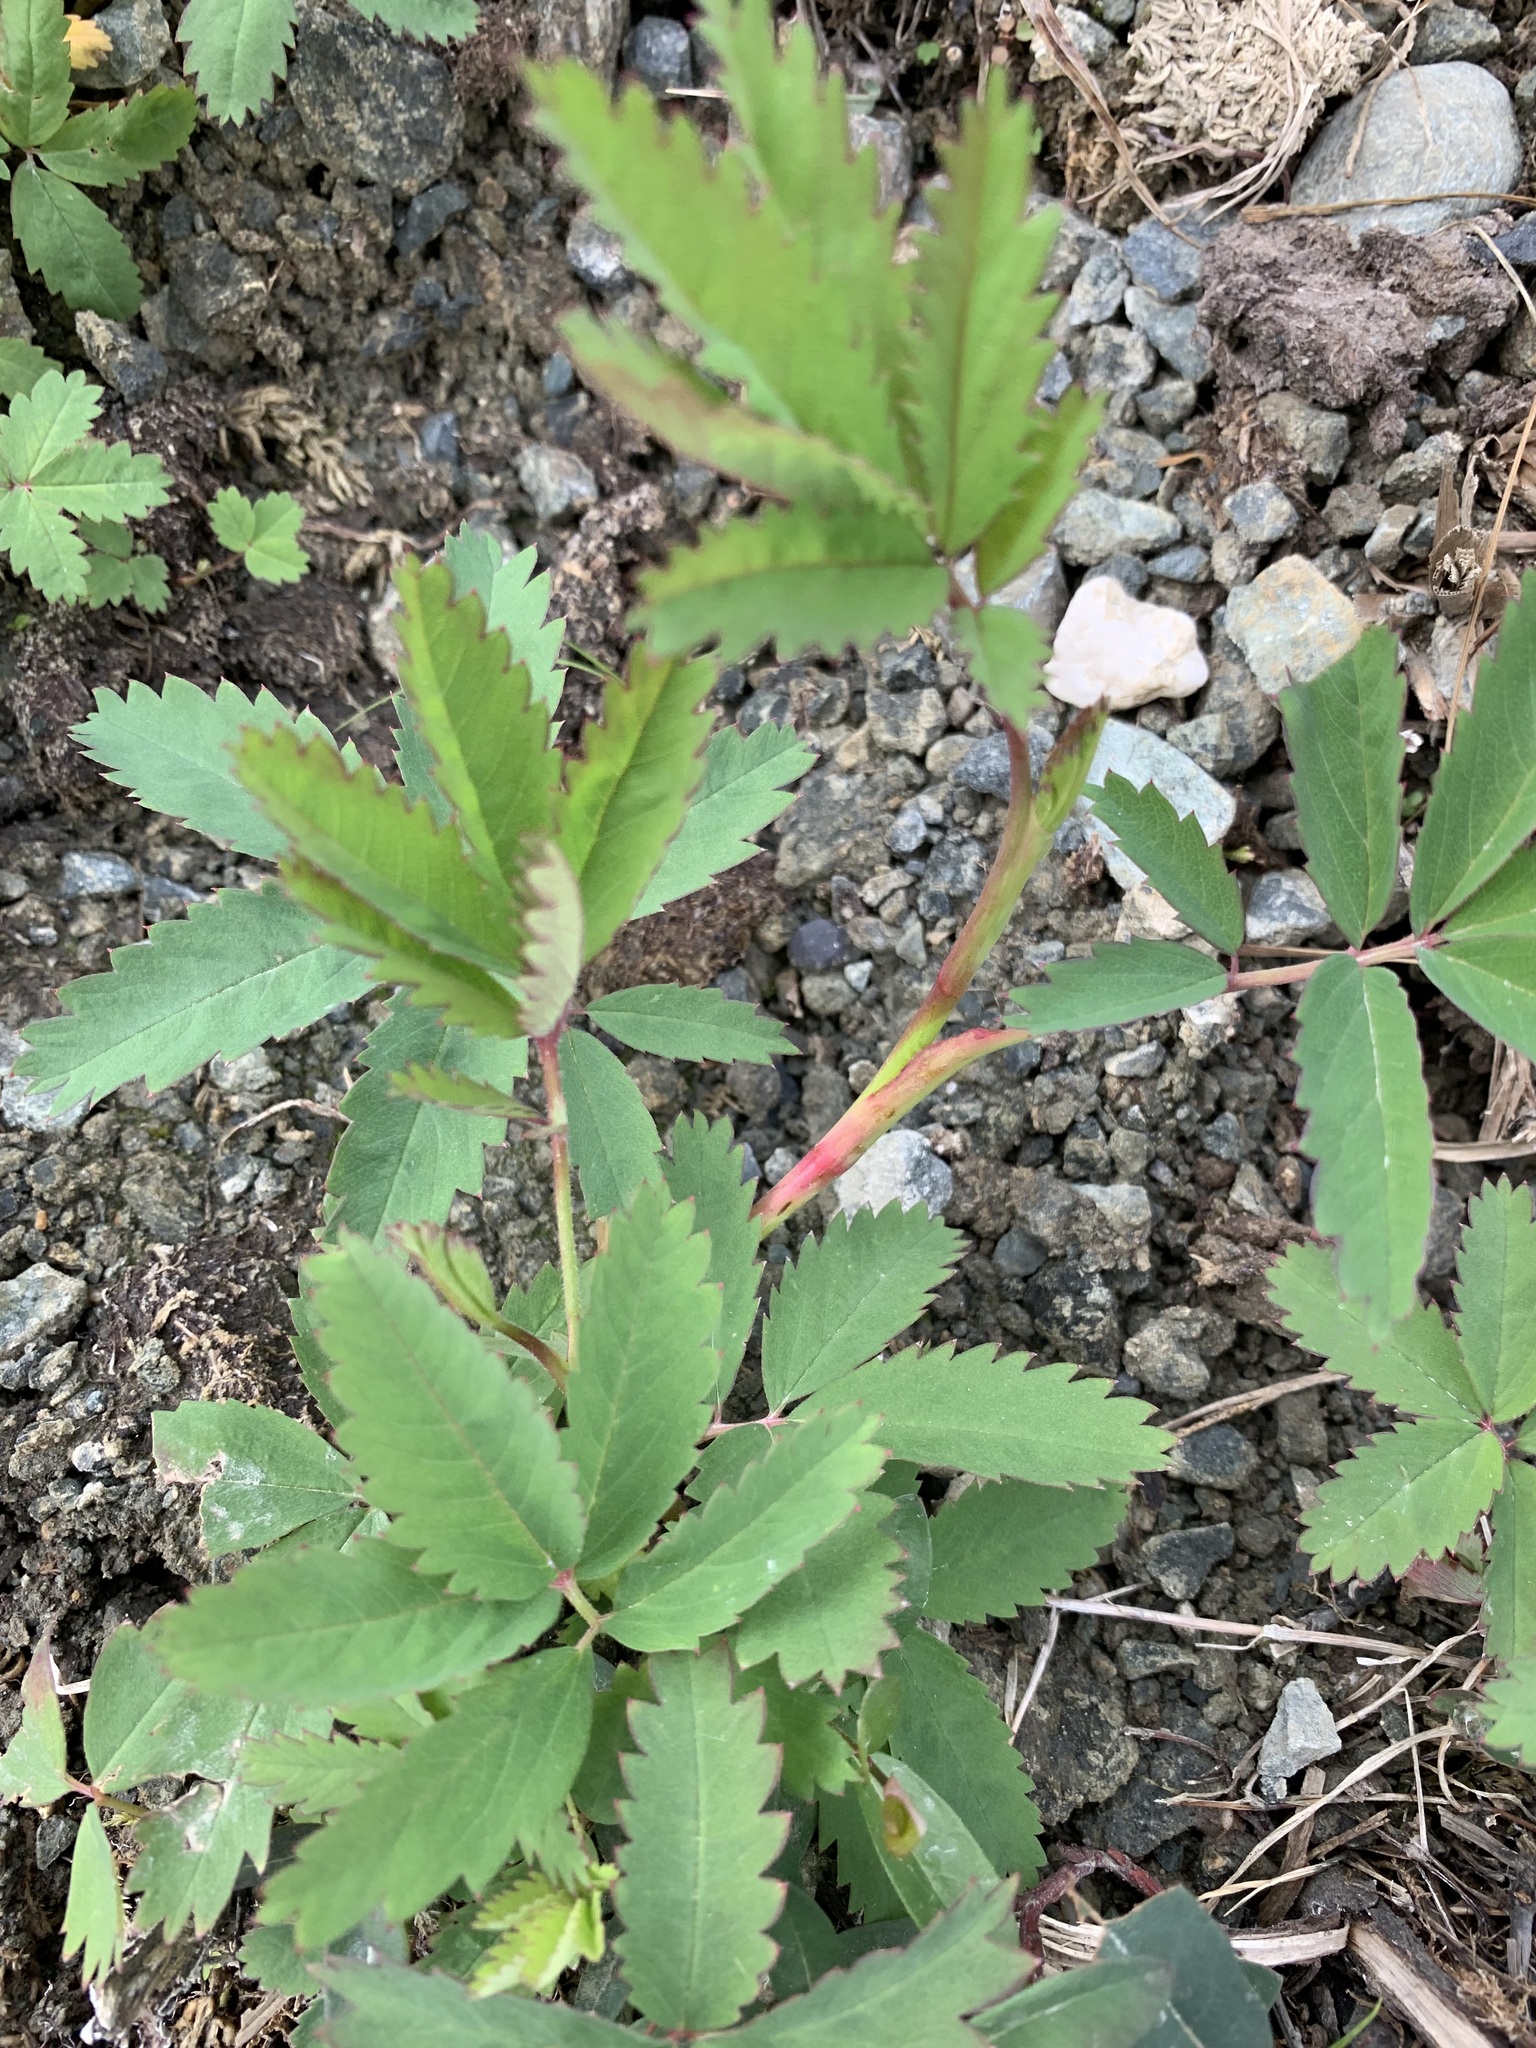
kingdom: Plantae
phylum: Tracheophyta
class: Magnoliopsida
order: Rosales
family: Rosaceae
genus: Comarum
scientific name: Comarum palustre
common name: Marsh cinquefoil
